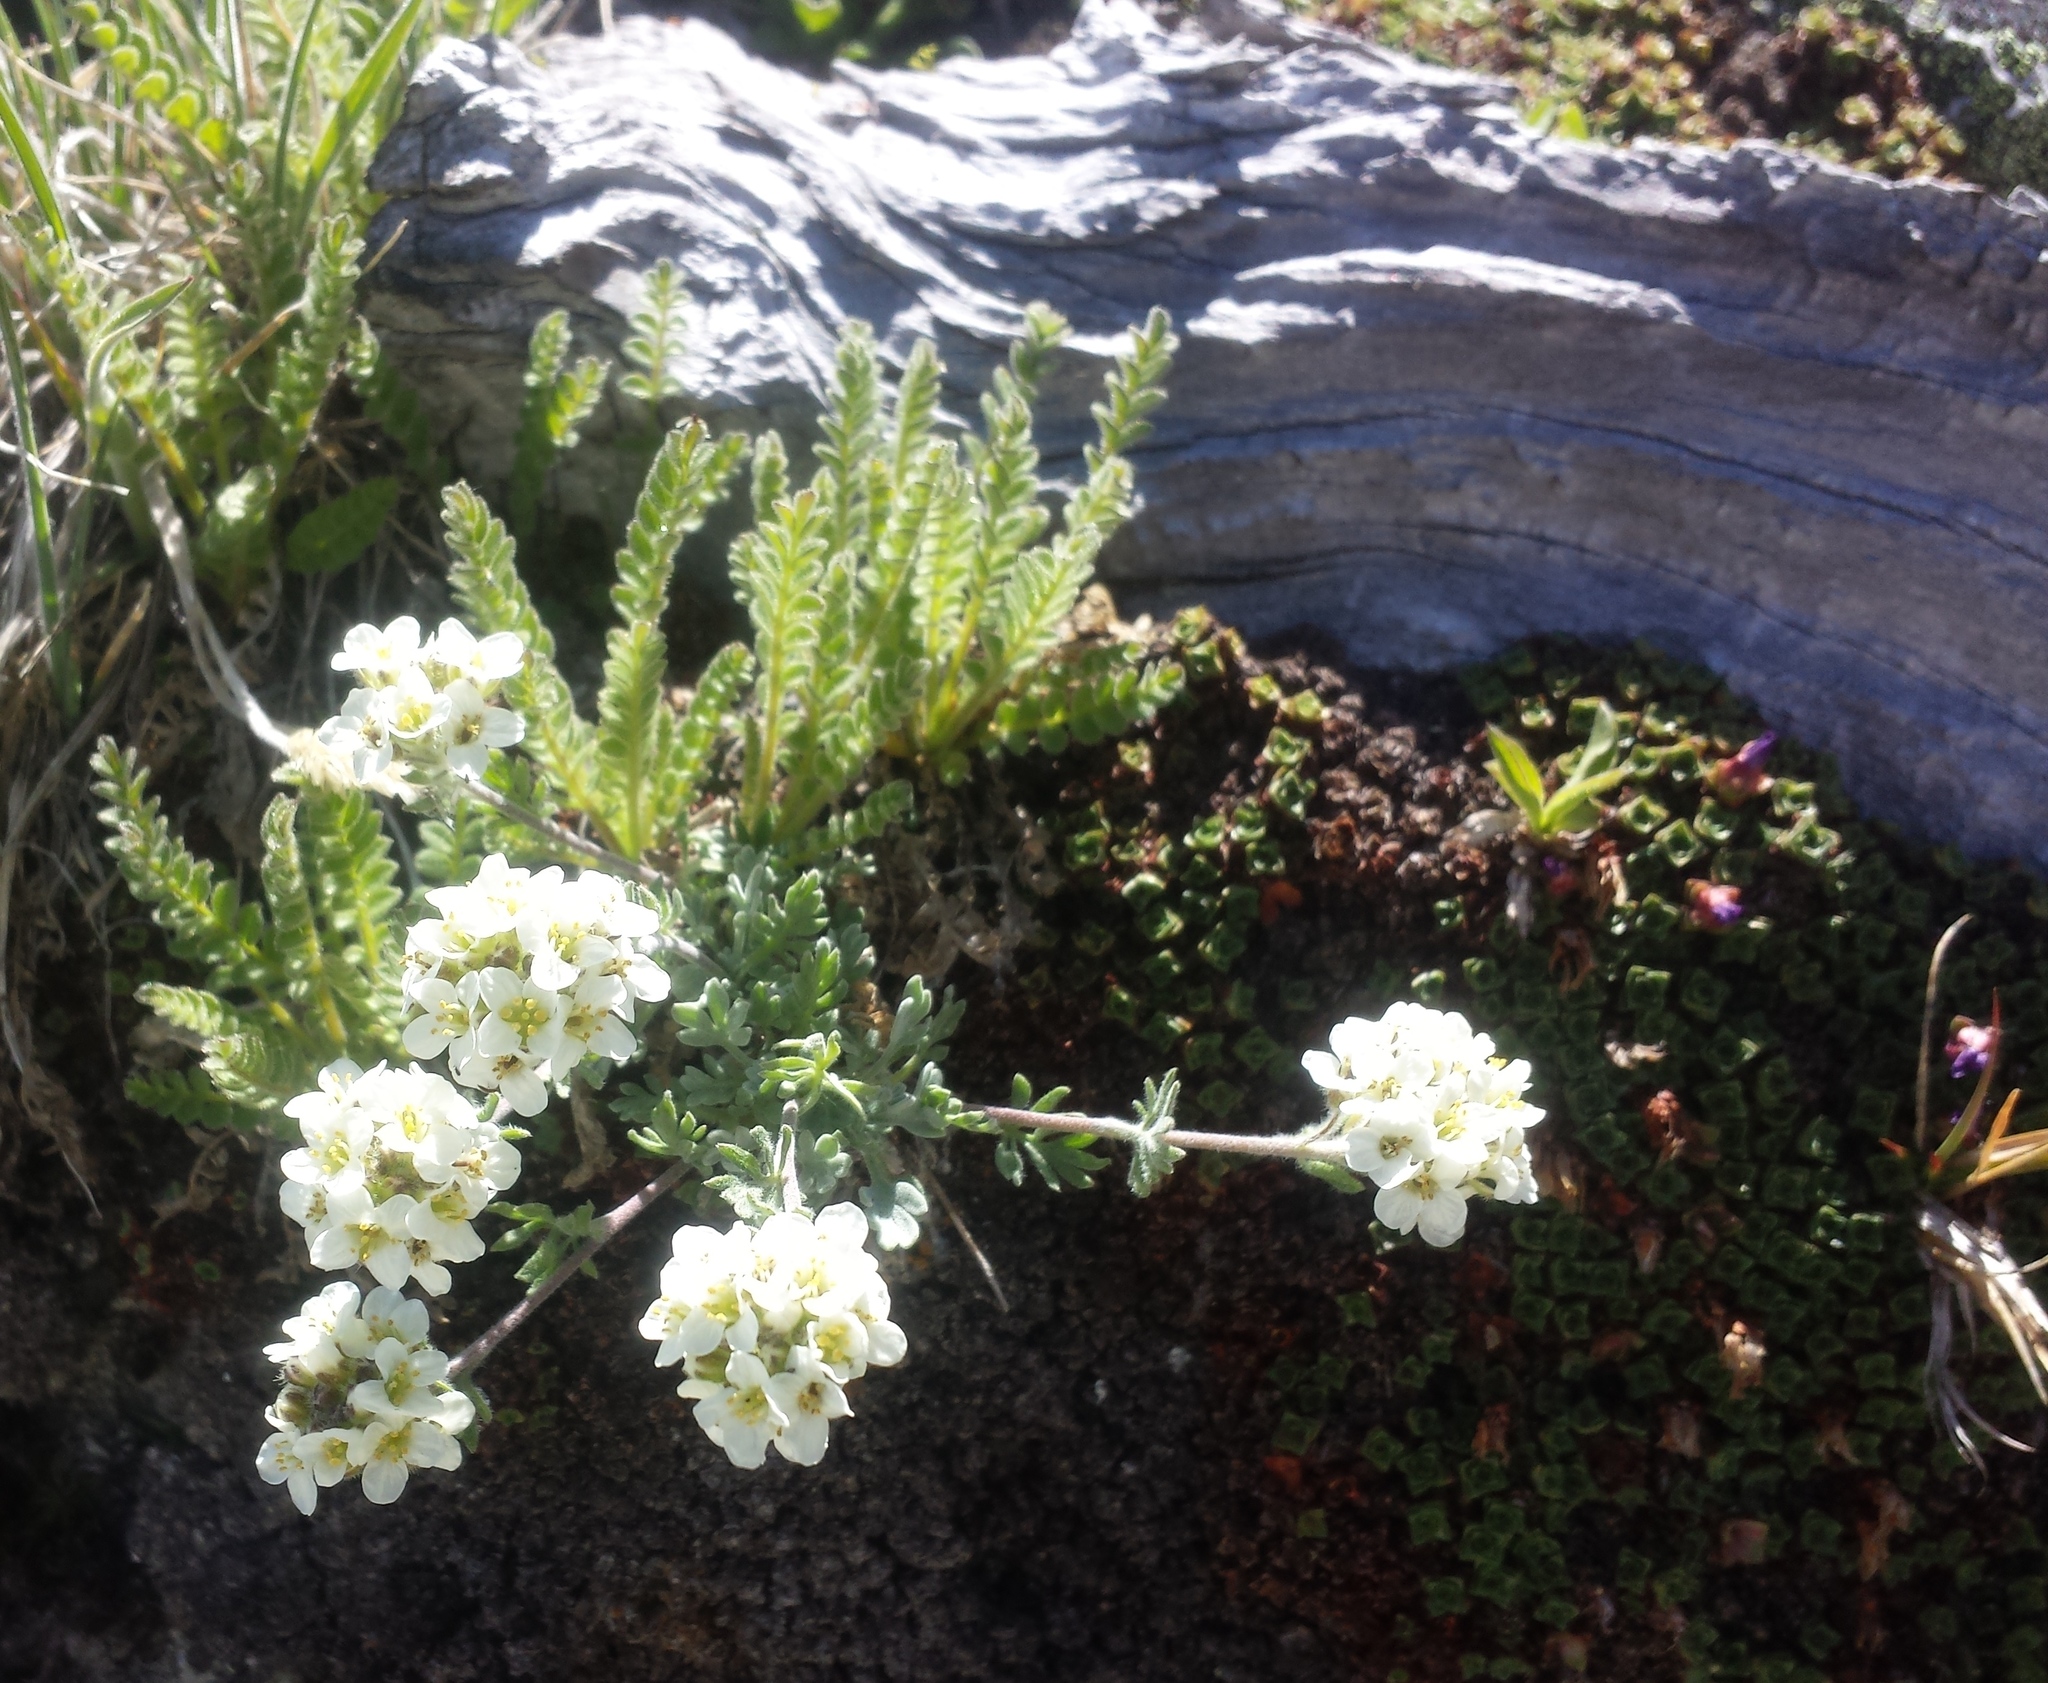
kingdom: Plantae
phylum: Tracheophyta
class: Magnoliopsida
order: Brassicales
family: Brassicaceae
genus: Smelowskia
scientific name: Smelowskia americana
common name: American false candytuft
